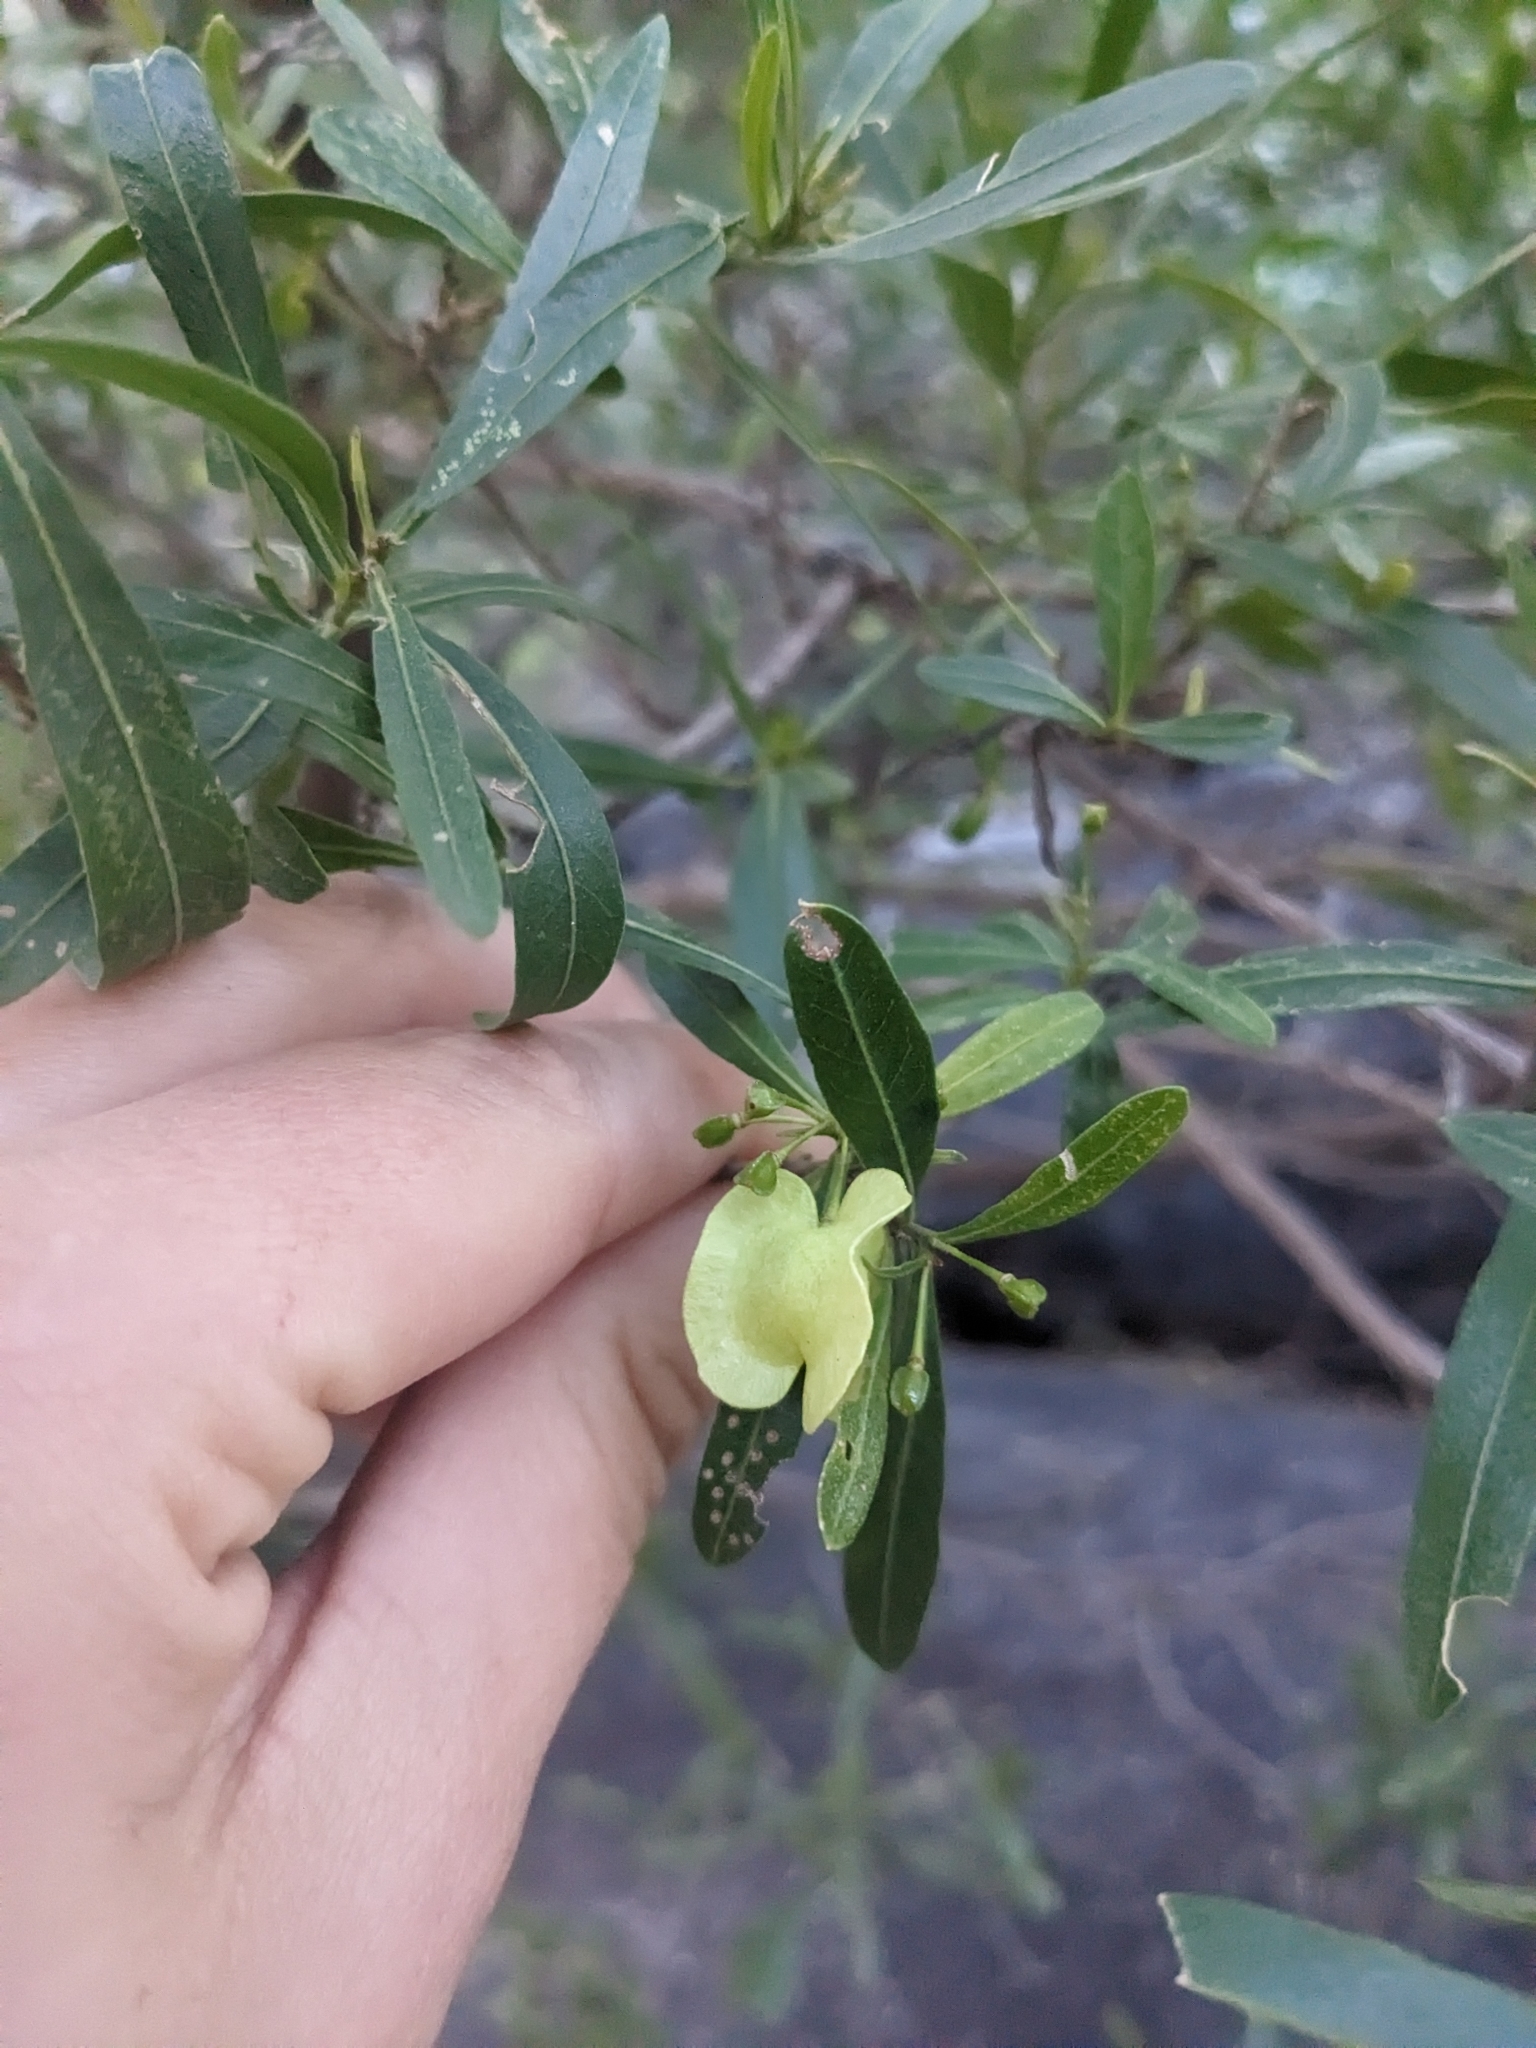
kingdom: Plantae
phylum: Tracheophyta
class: Magnoliopsida
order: Sapindales
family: Sapindaceae
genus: Dodonaea
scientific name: Dodonaea viscosa
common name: Hopbush
